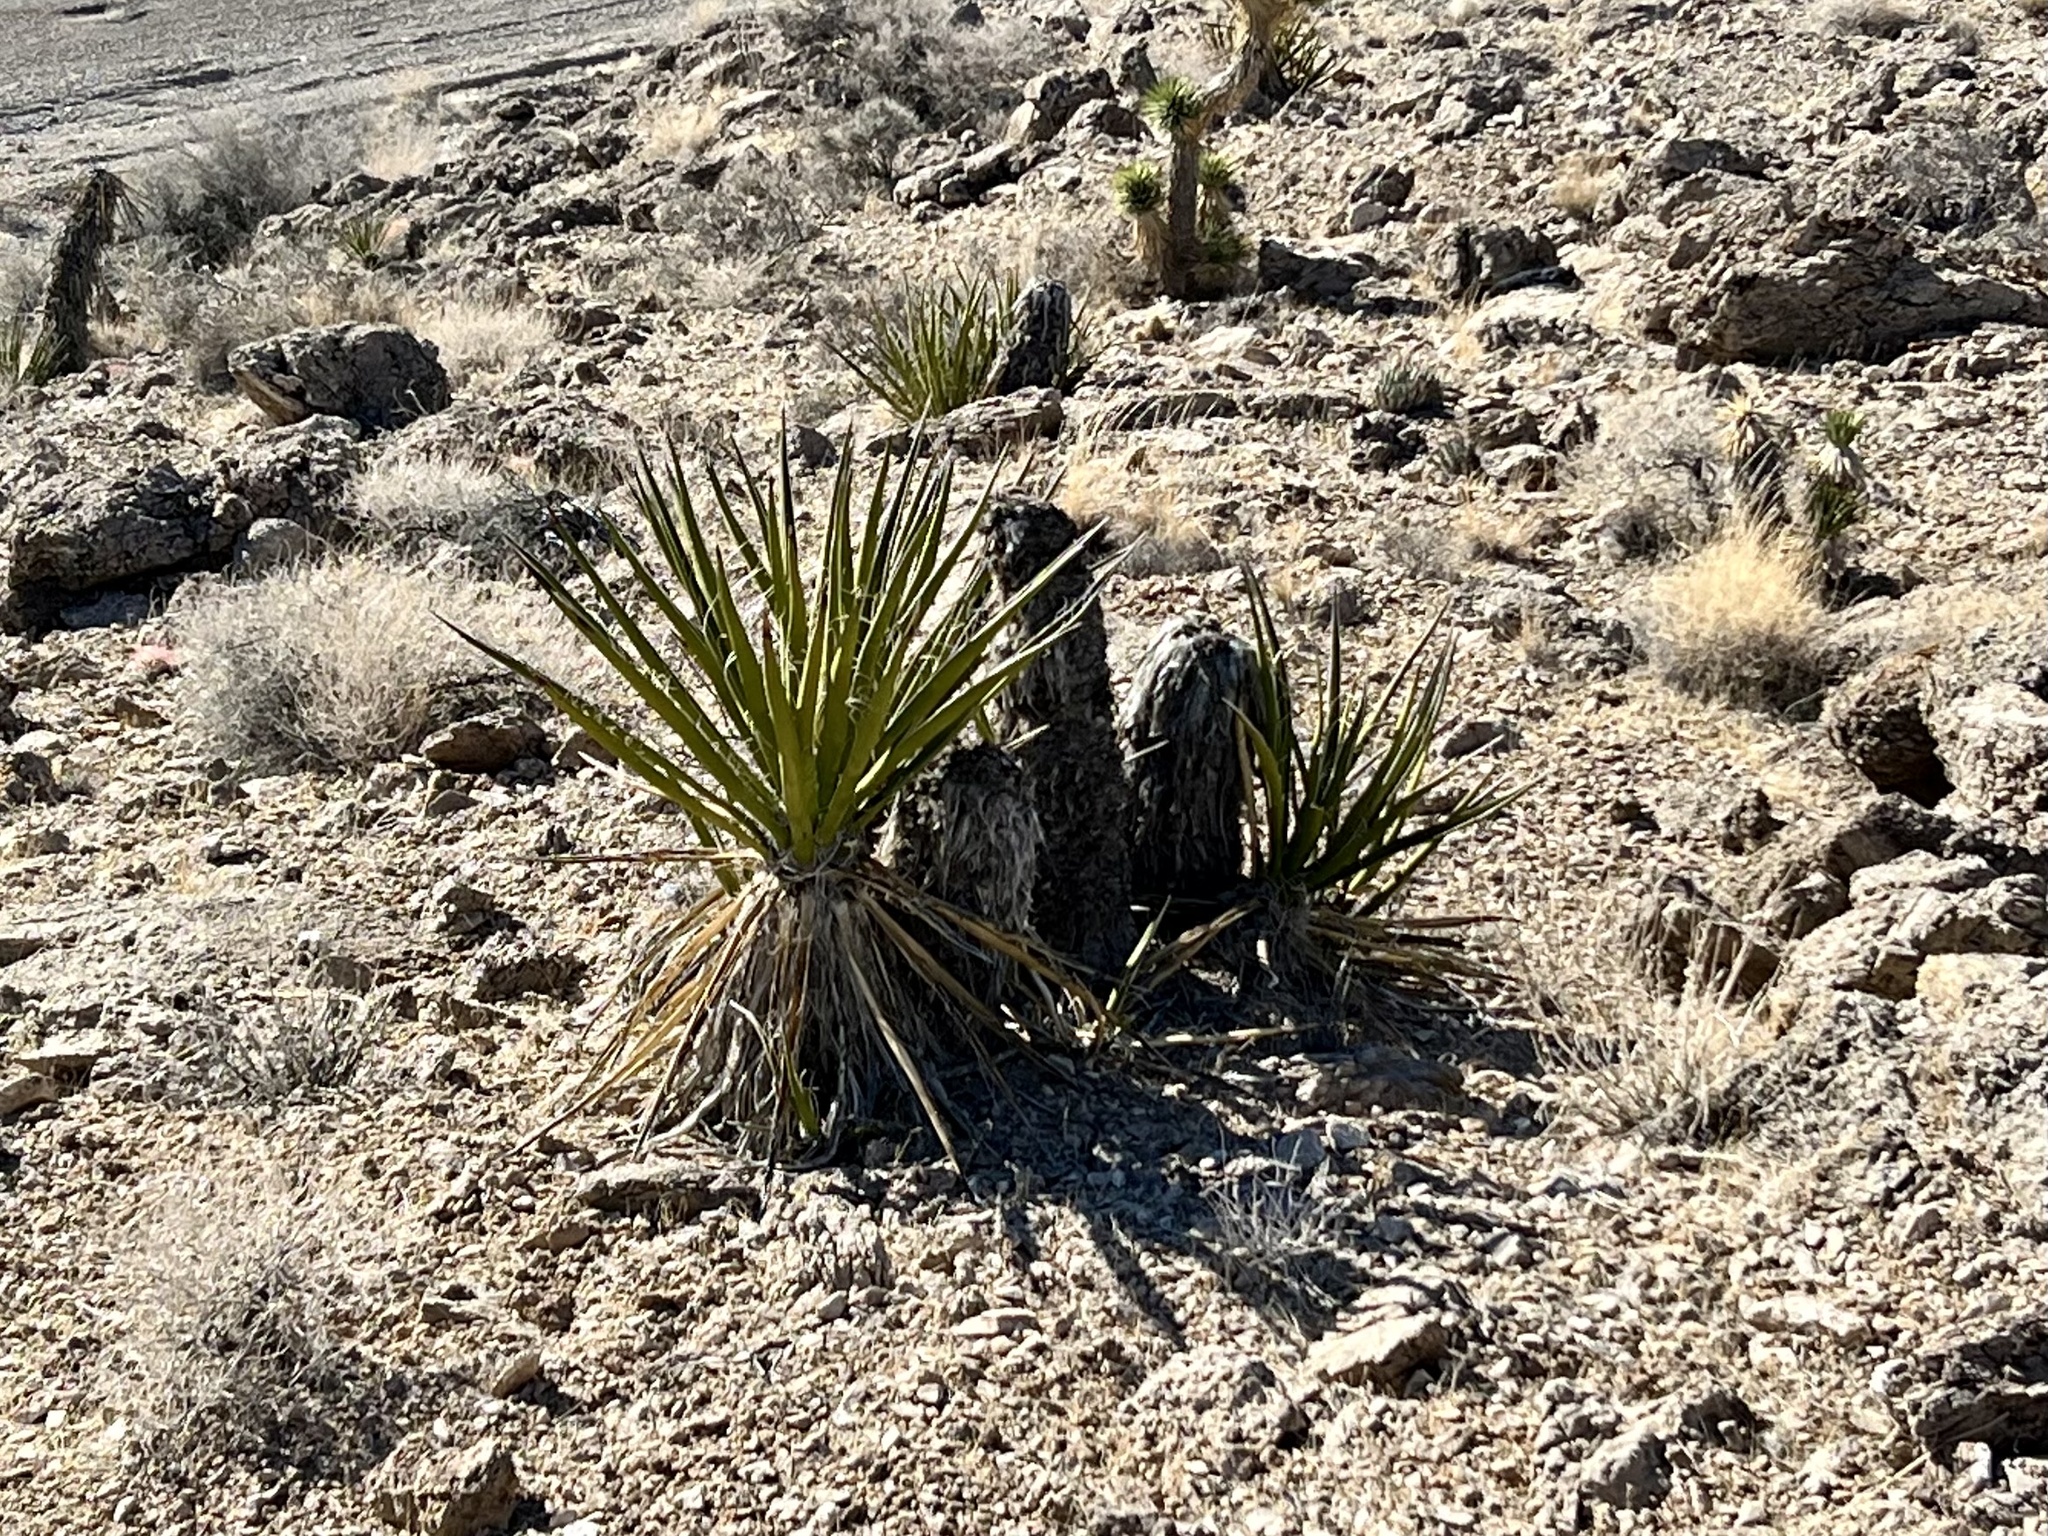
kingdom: Plantae
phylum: Tracheophyta
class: Liliopsida
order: Asparagales
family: Asparagaceae
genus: Yucca
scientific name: Yucca schidigera
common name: Mojave yucca
